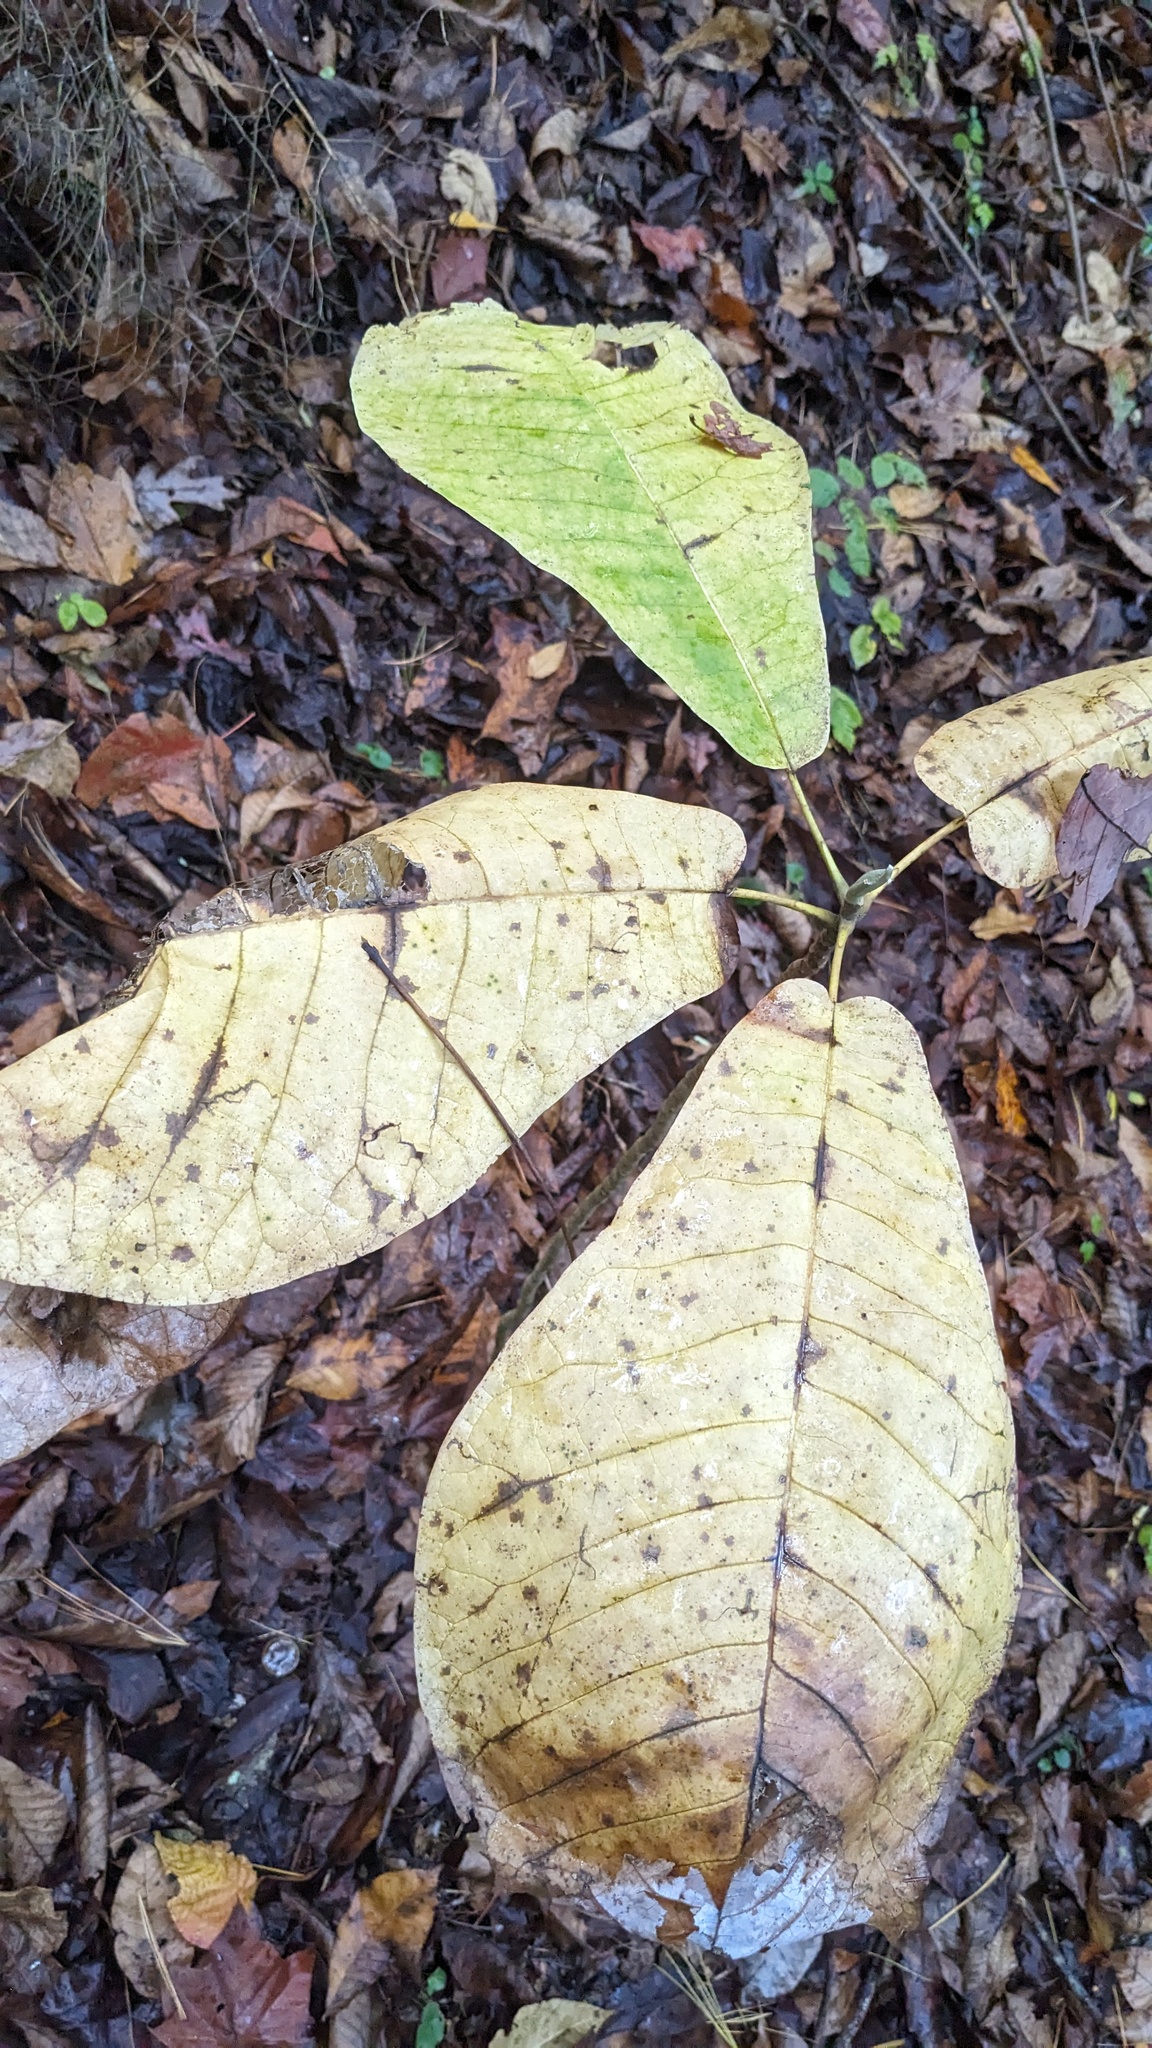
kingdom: Plantae
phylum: Tracheophyta
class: Magnoliopsida
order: Magnoliales
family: Magnoliaceae
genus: Magnolia
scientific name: Magnolia macrophylla
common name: Big-leaf magnolia
